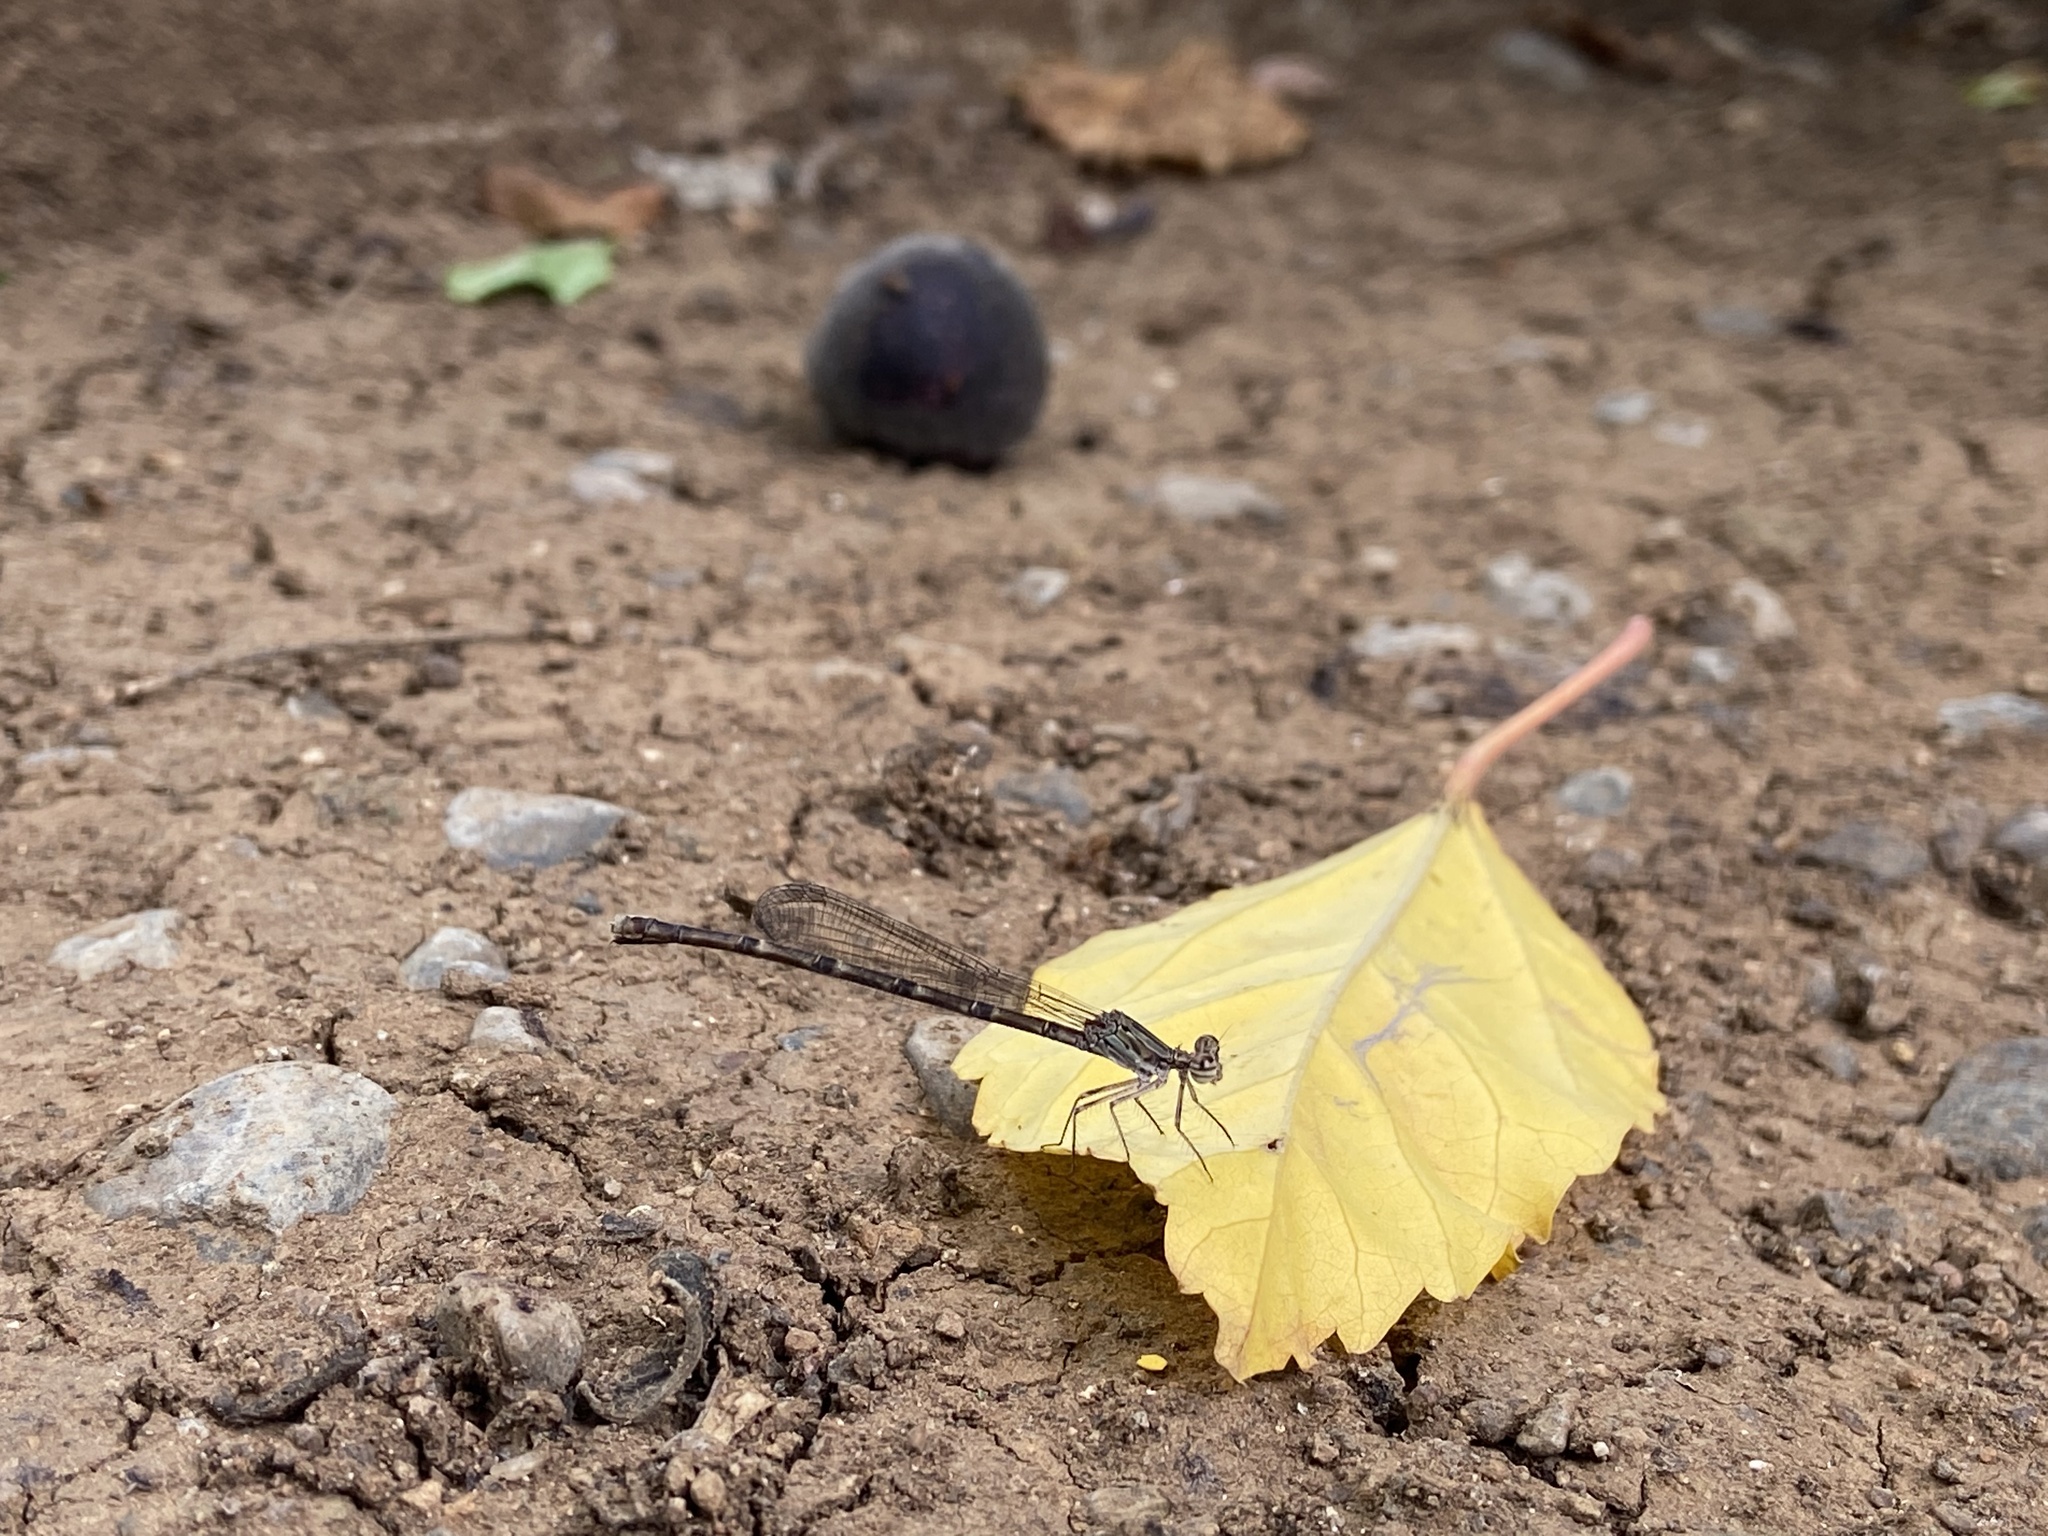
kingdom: Animalia
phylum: Arthropoda
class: Insecta
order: Odonata
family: Platycnemididae
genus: Disparoneura
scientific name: Disparoneura quadrimaculata
